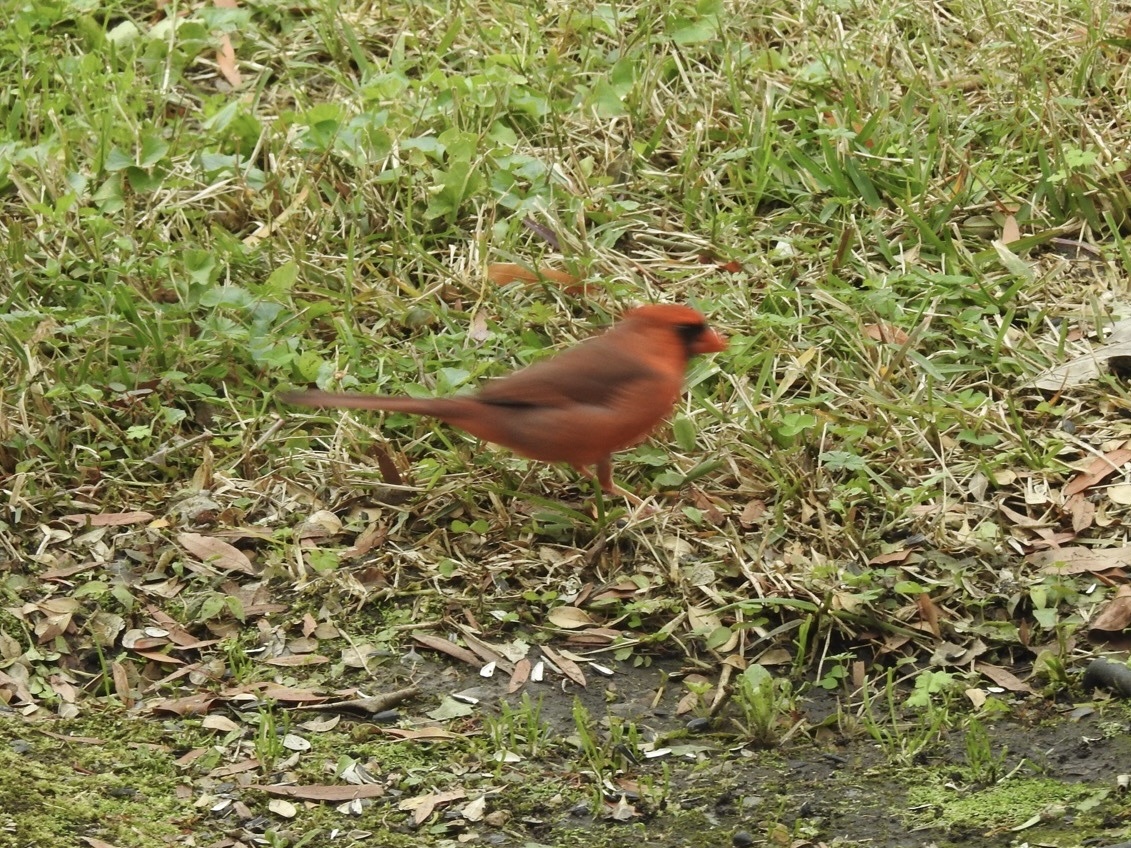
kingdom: Animalia
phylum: Chordata
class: Aves
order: Passeriformes
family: Cardinalidae
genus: Cardinalis
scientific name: Cardinalis cardinalis
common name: Northern cardinal
